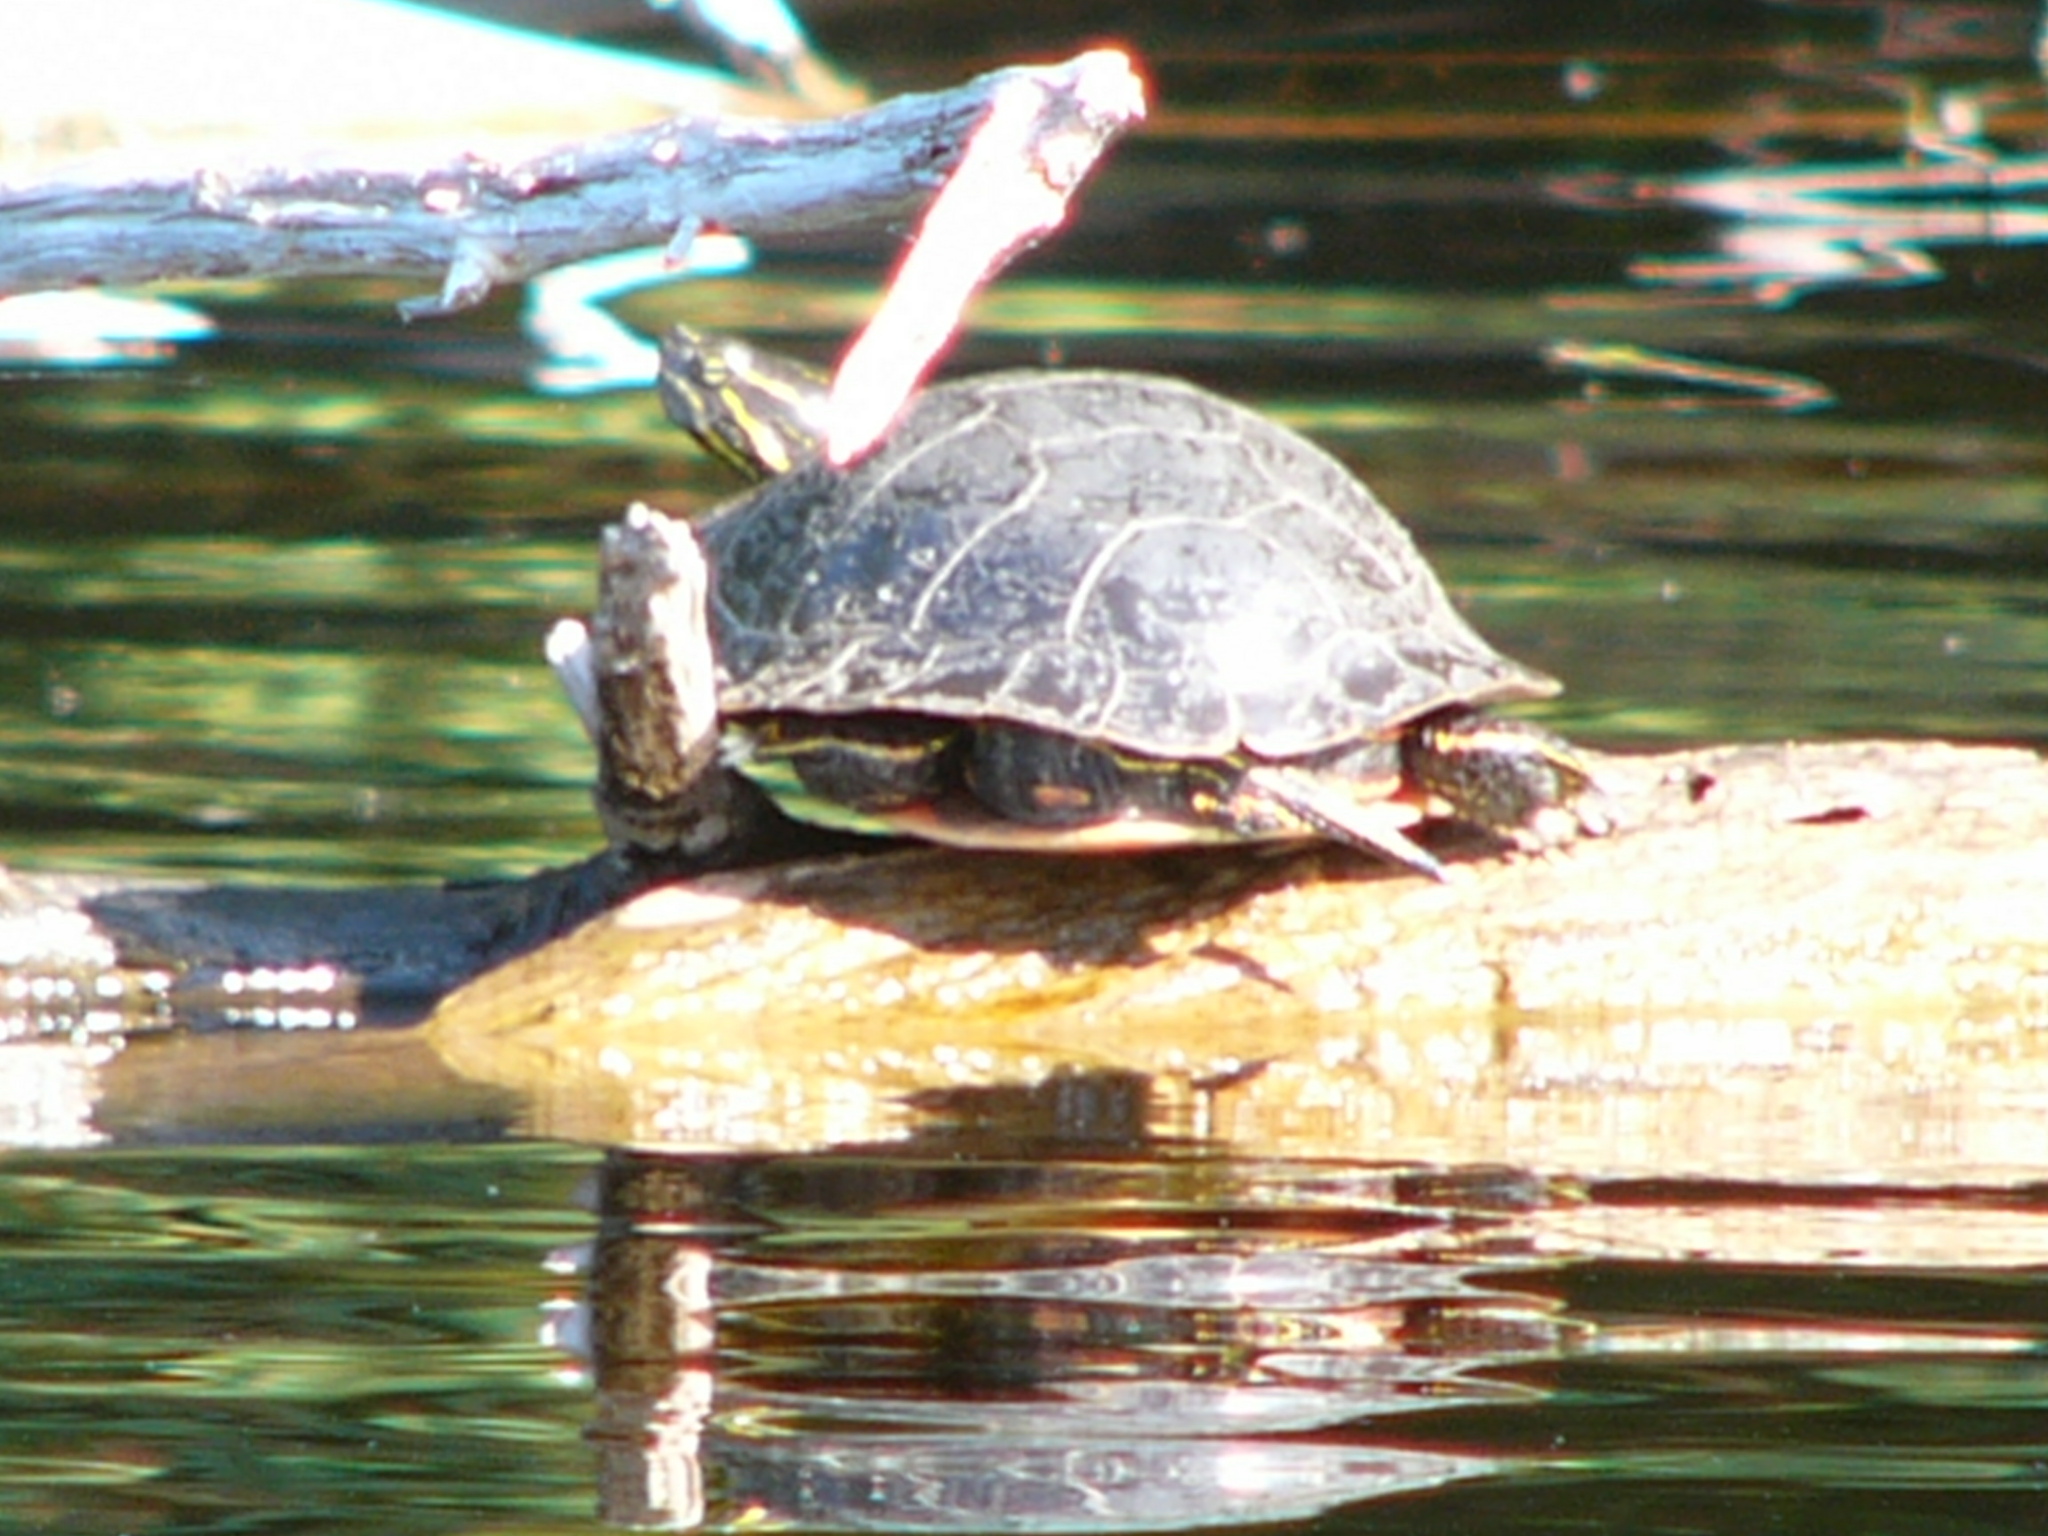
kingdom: Animalia
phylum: Chordata
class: Testudines
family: Emydidae
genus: Chrysemys
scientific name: Chrysemys picta
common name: Painted turtle
